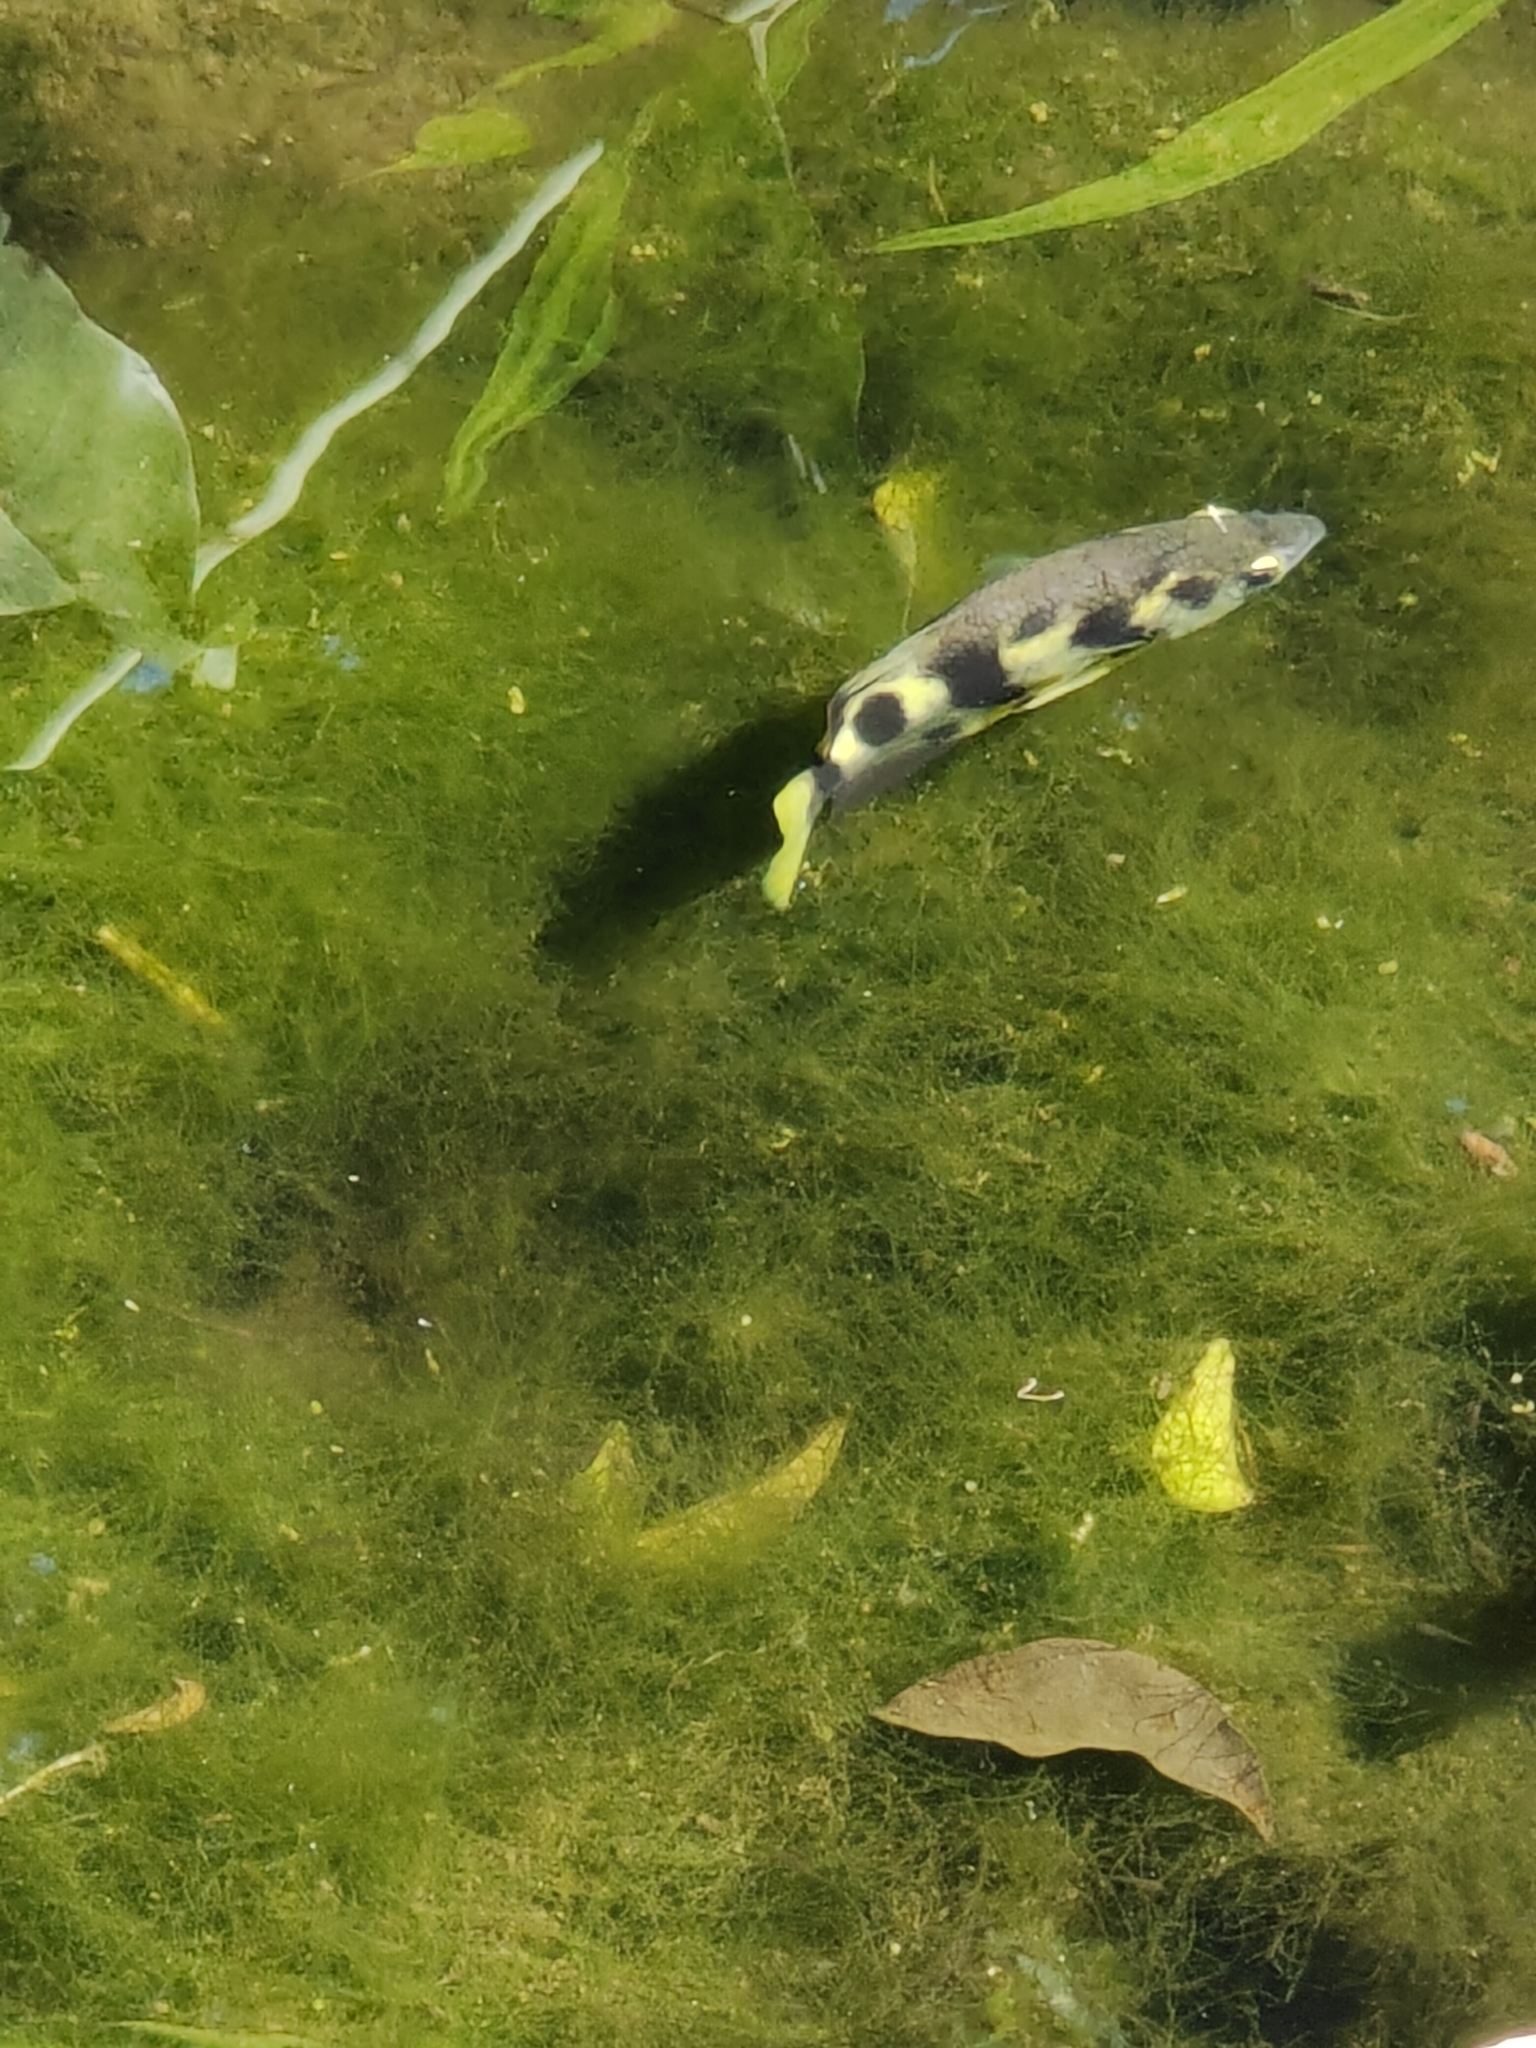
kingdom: Animalia
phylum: Chordata
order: Perciformes
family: Toxotidae
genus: Toxotes
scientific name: Toxotes chatareus
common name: Spotted archerfish
